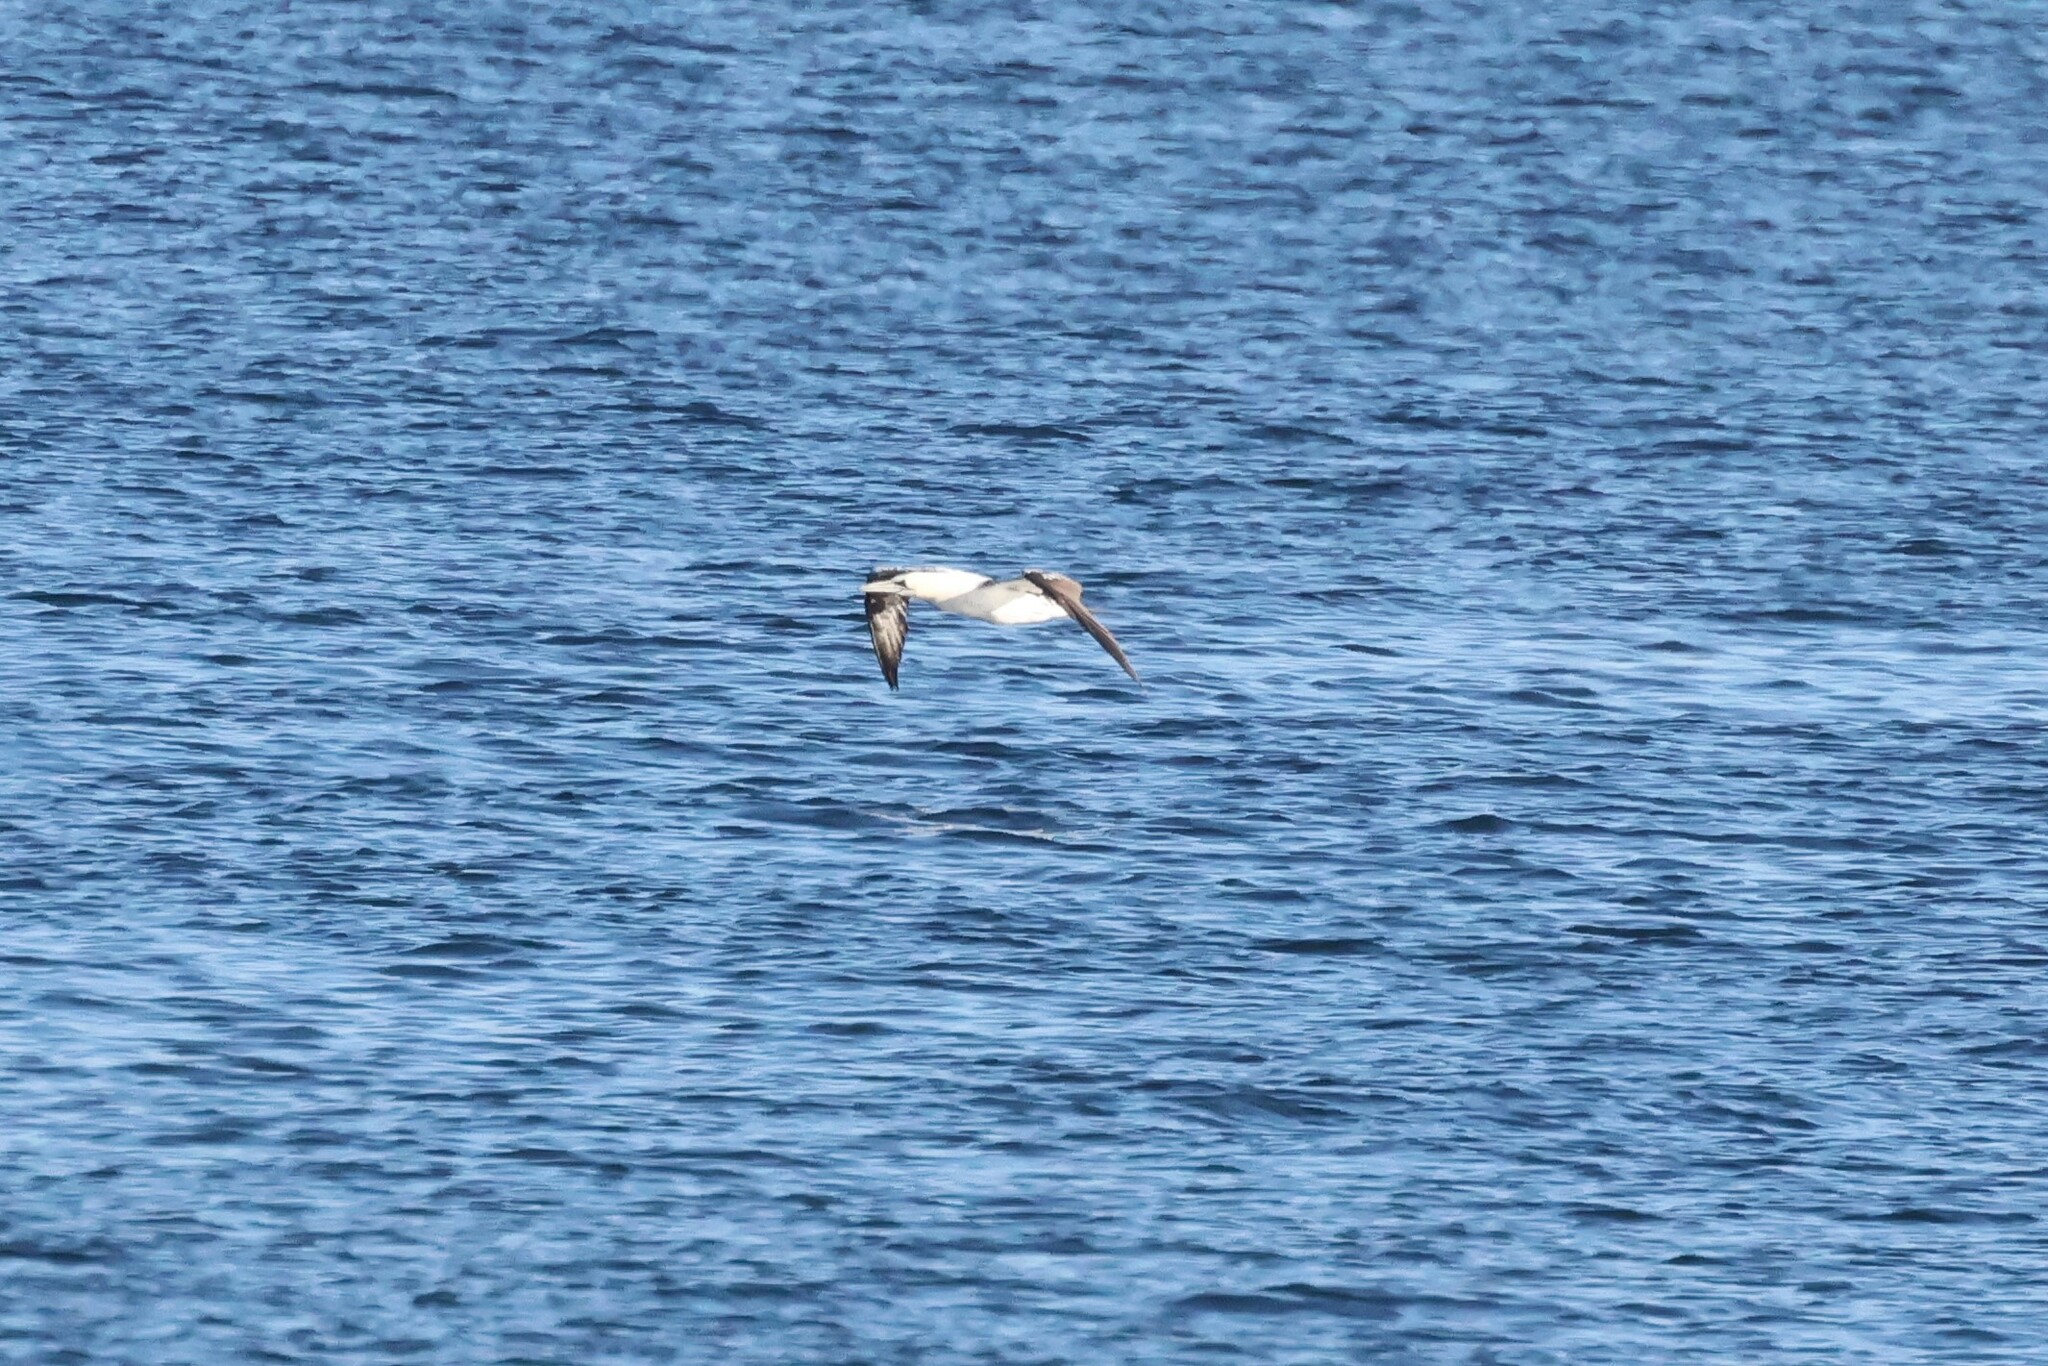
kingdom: Animalia
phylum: Chordata
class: Aves
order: Suliformes
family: Sulidae
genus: Morus
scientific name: Morus bassanus
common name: Northern gannet
